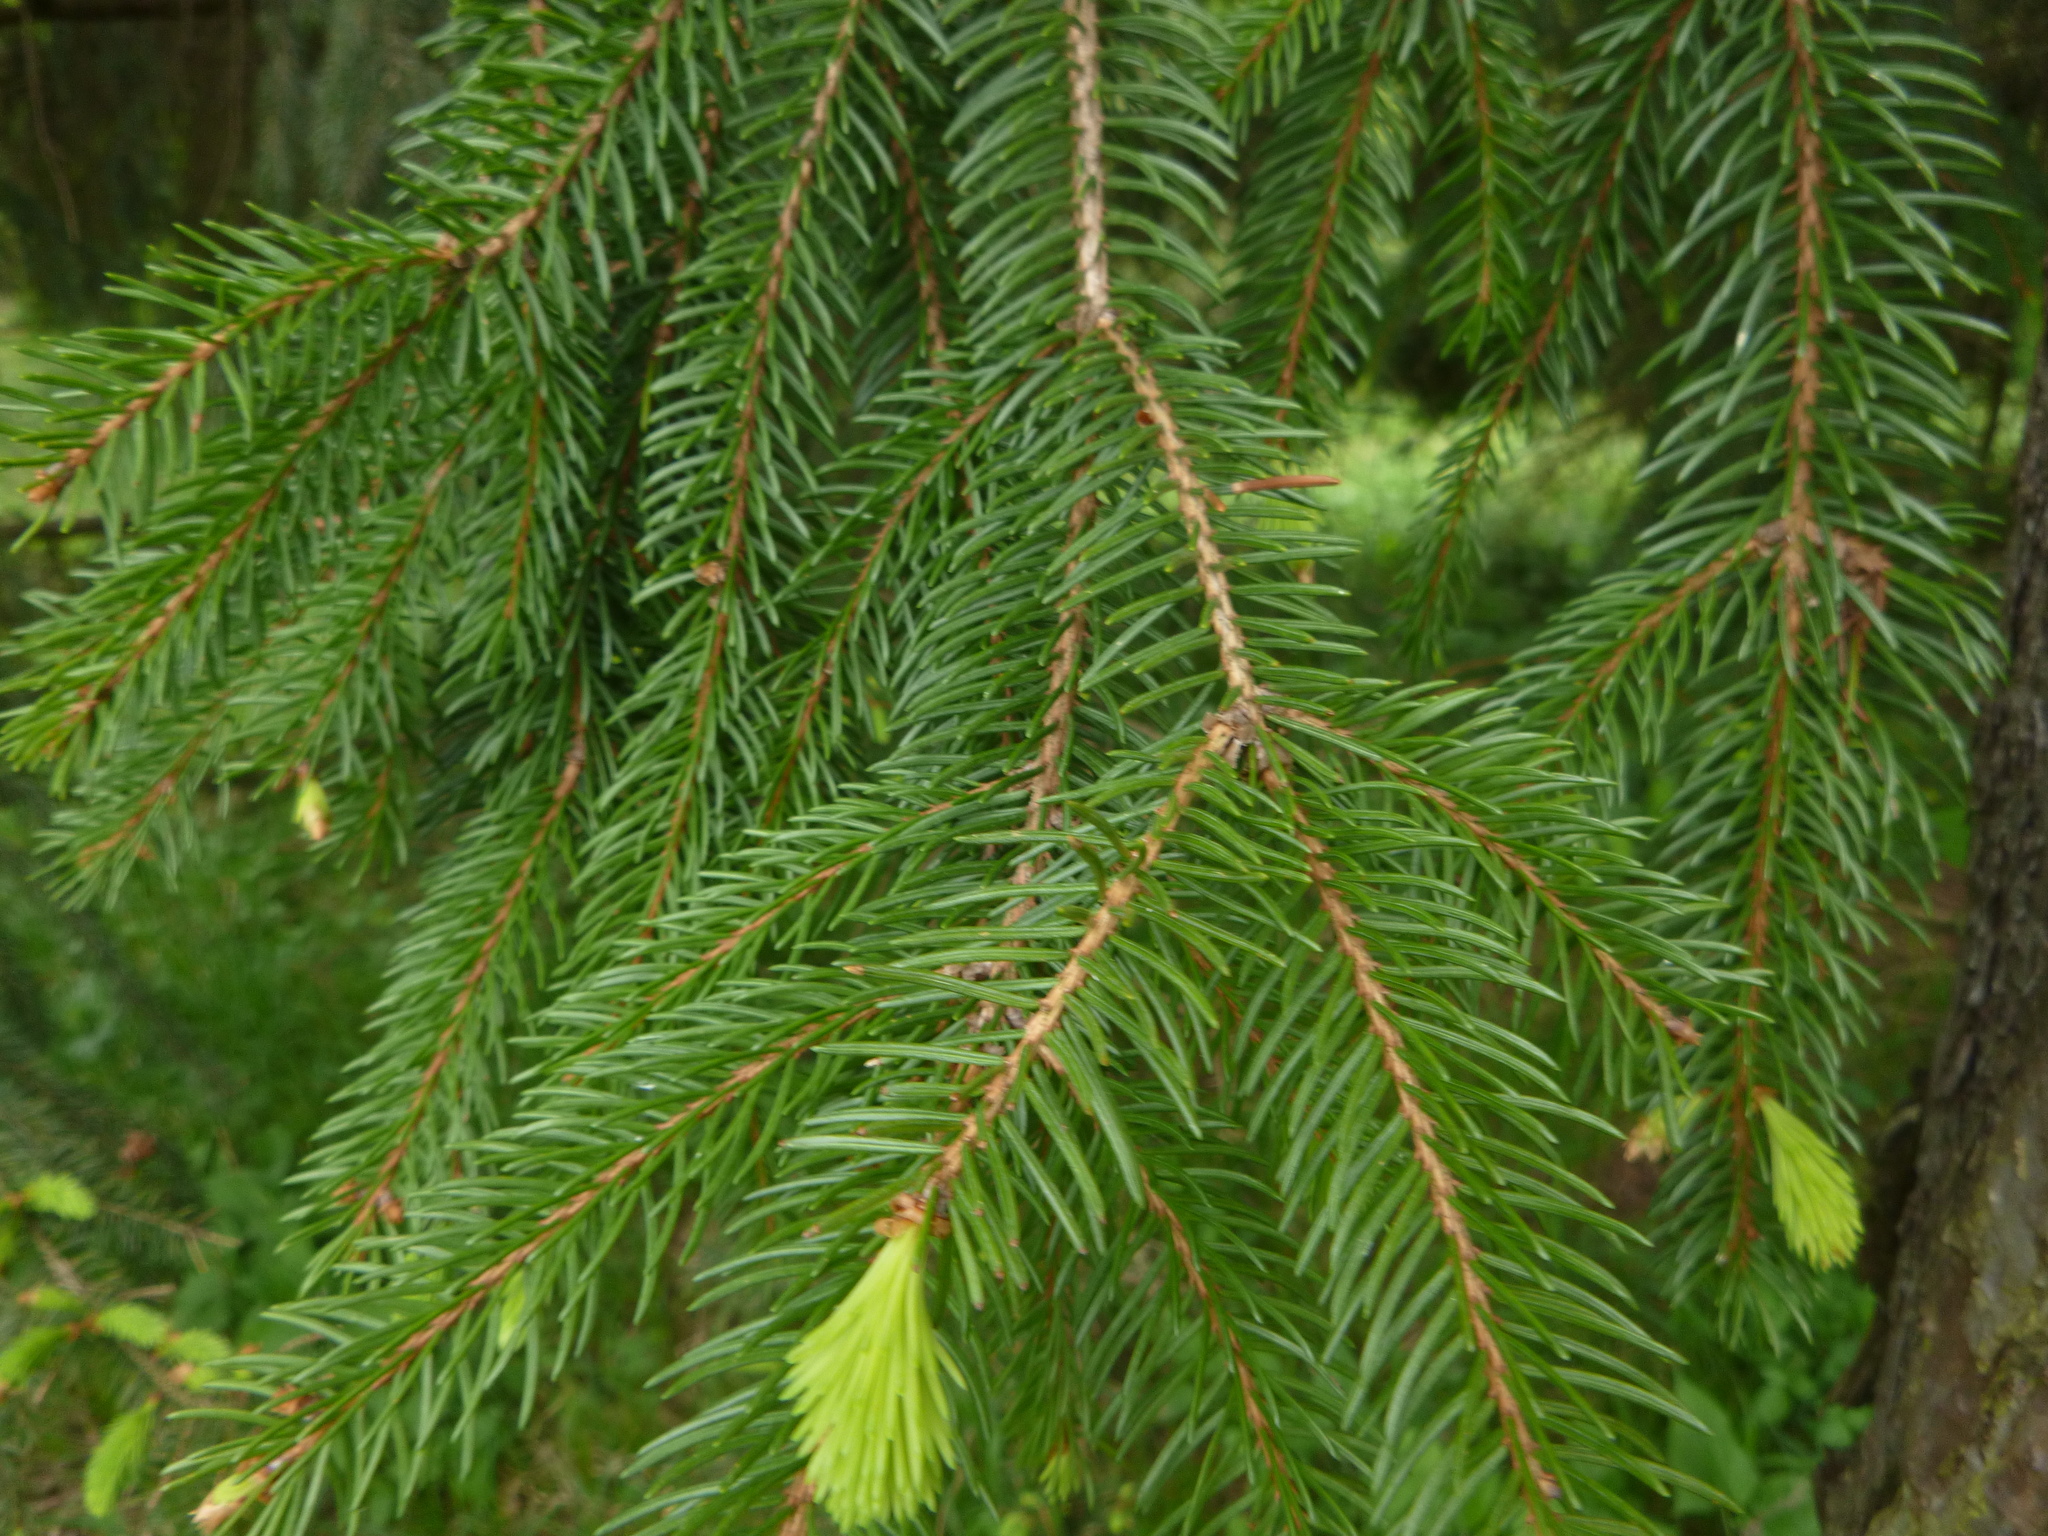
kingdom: Plantae
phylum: Tracheophyta
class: Pinopsida
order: Pinales
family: Pinaceae
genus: Picea
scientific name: Picea abies
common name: Norway spruce
